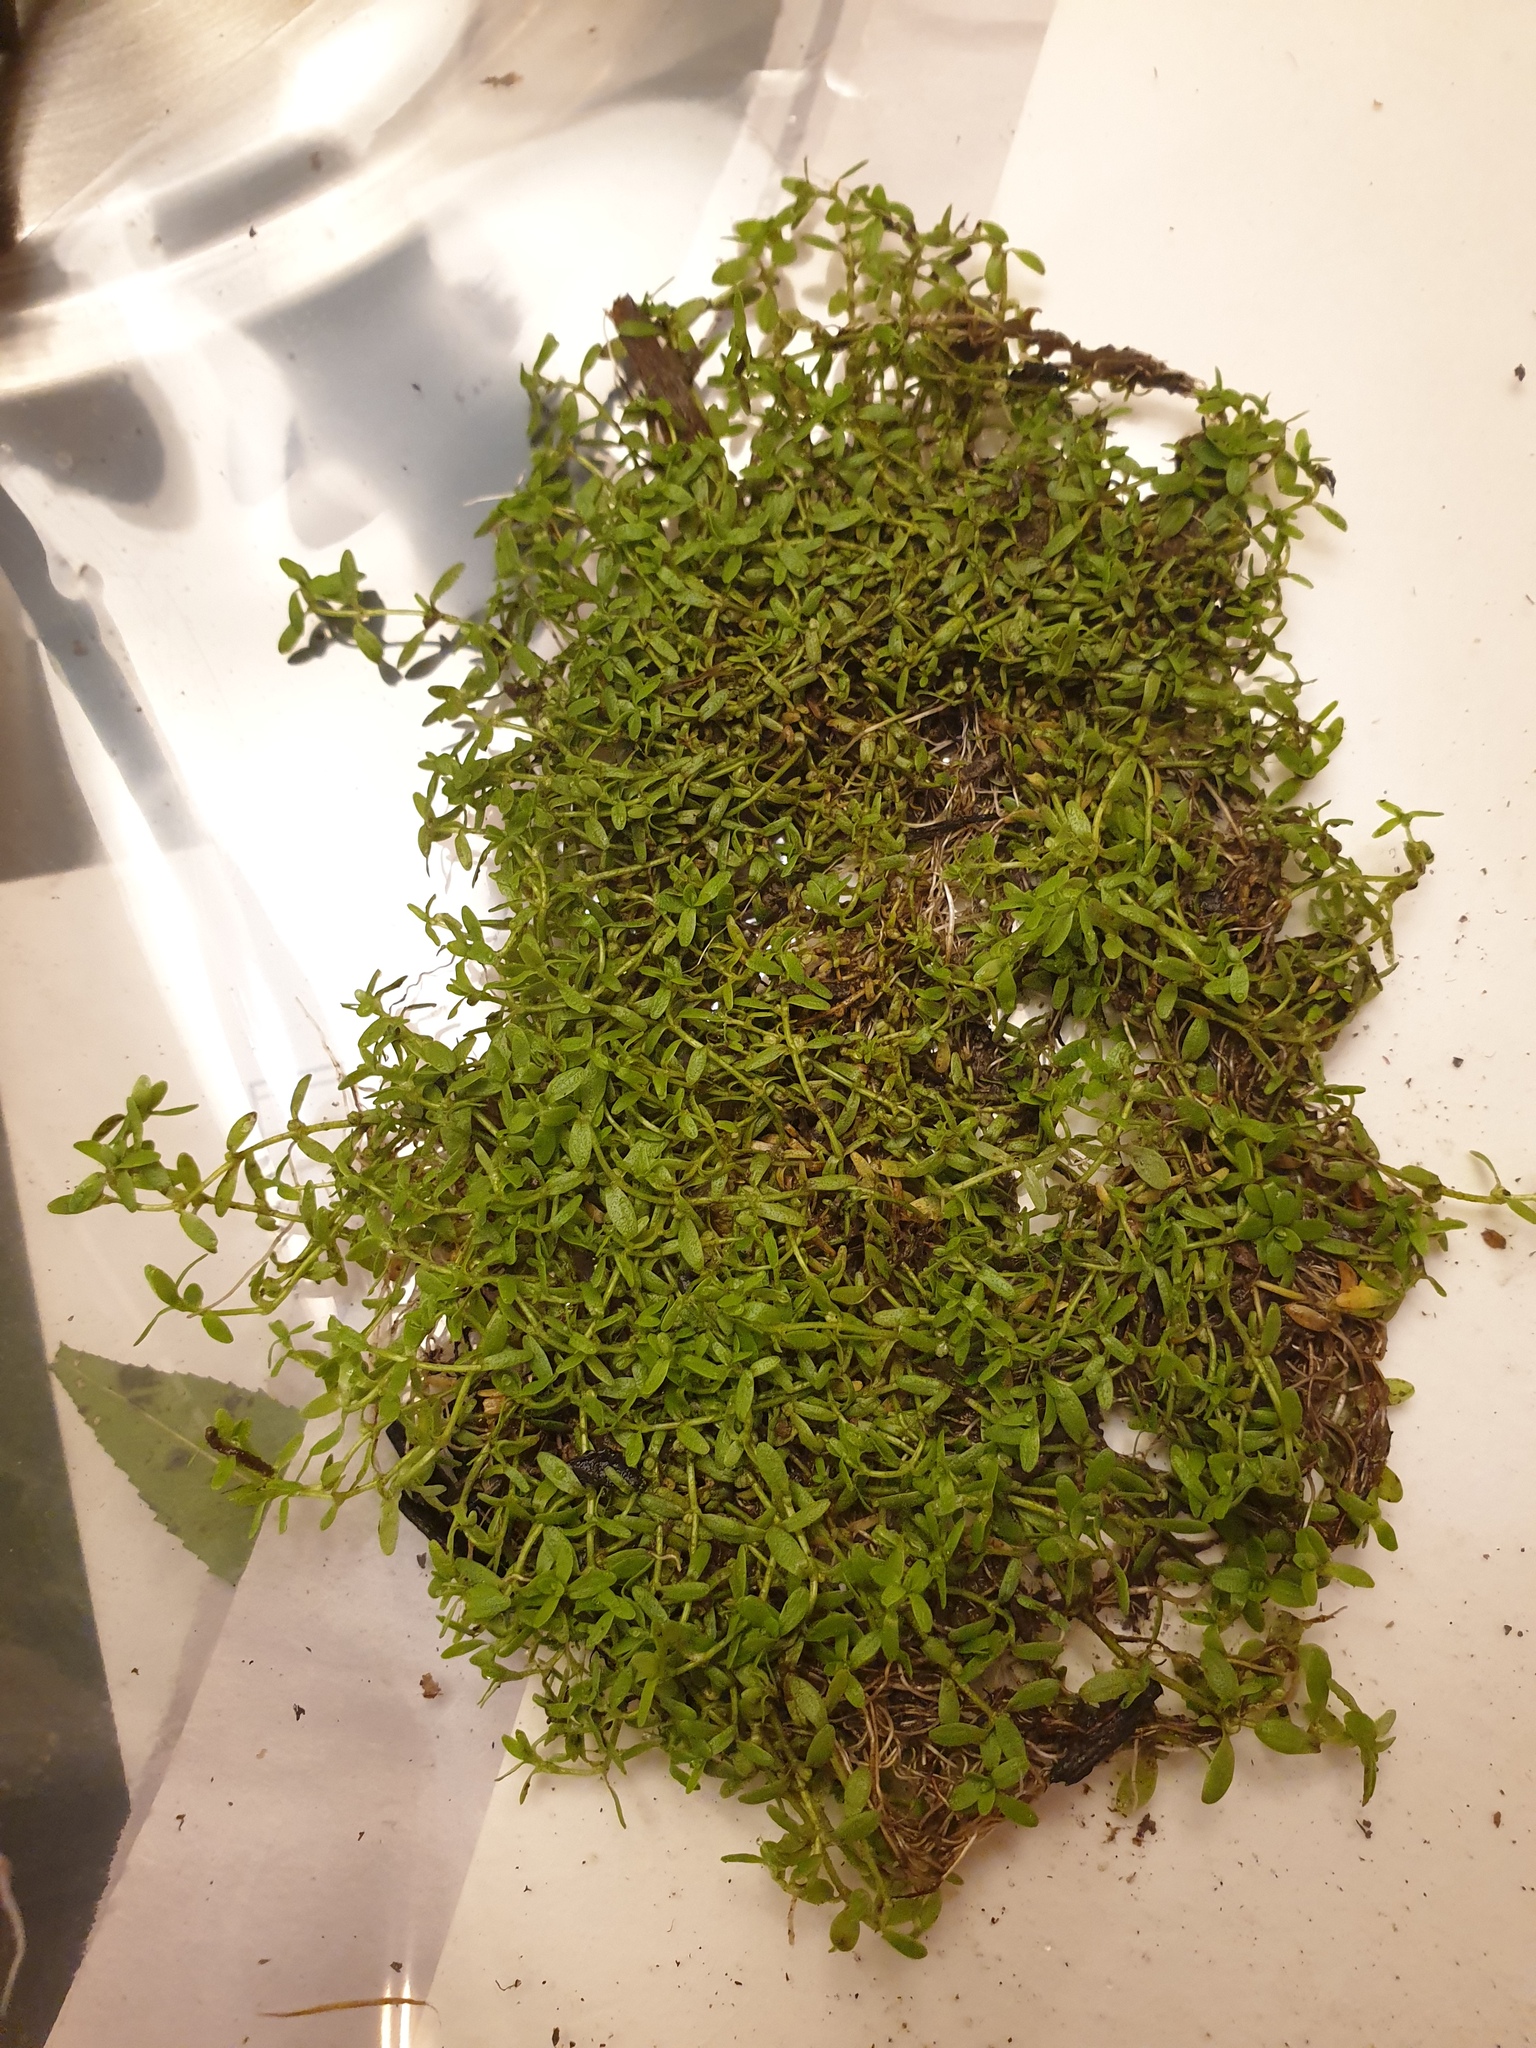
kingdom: Plantae
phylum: Tracheophyta
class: Magnoliopsida
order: Lamiales
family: Plantaginaceae
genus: Callitriche
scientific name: Callitriche palustris
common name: Spring water-starwort
